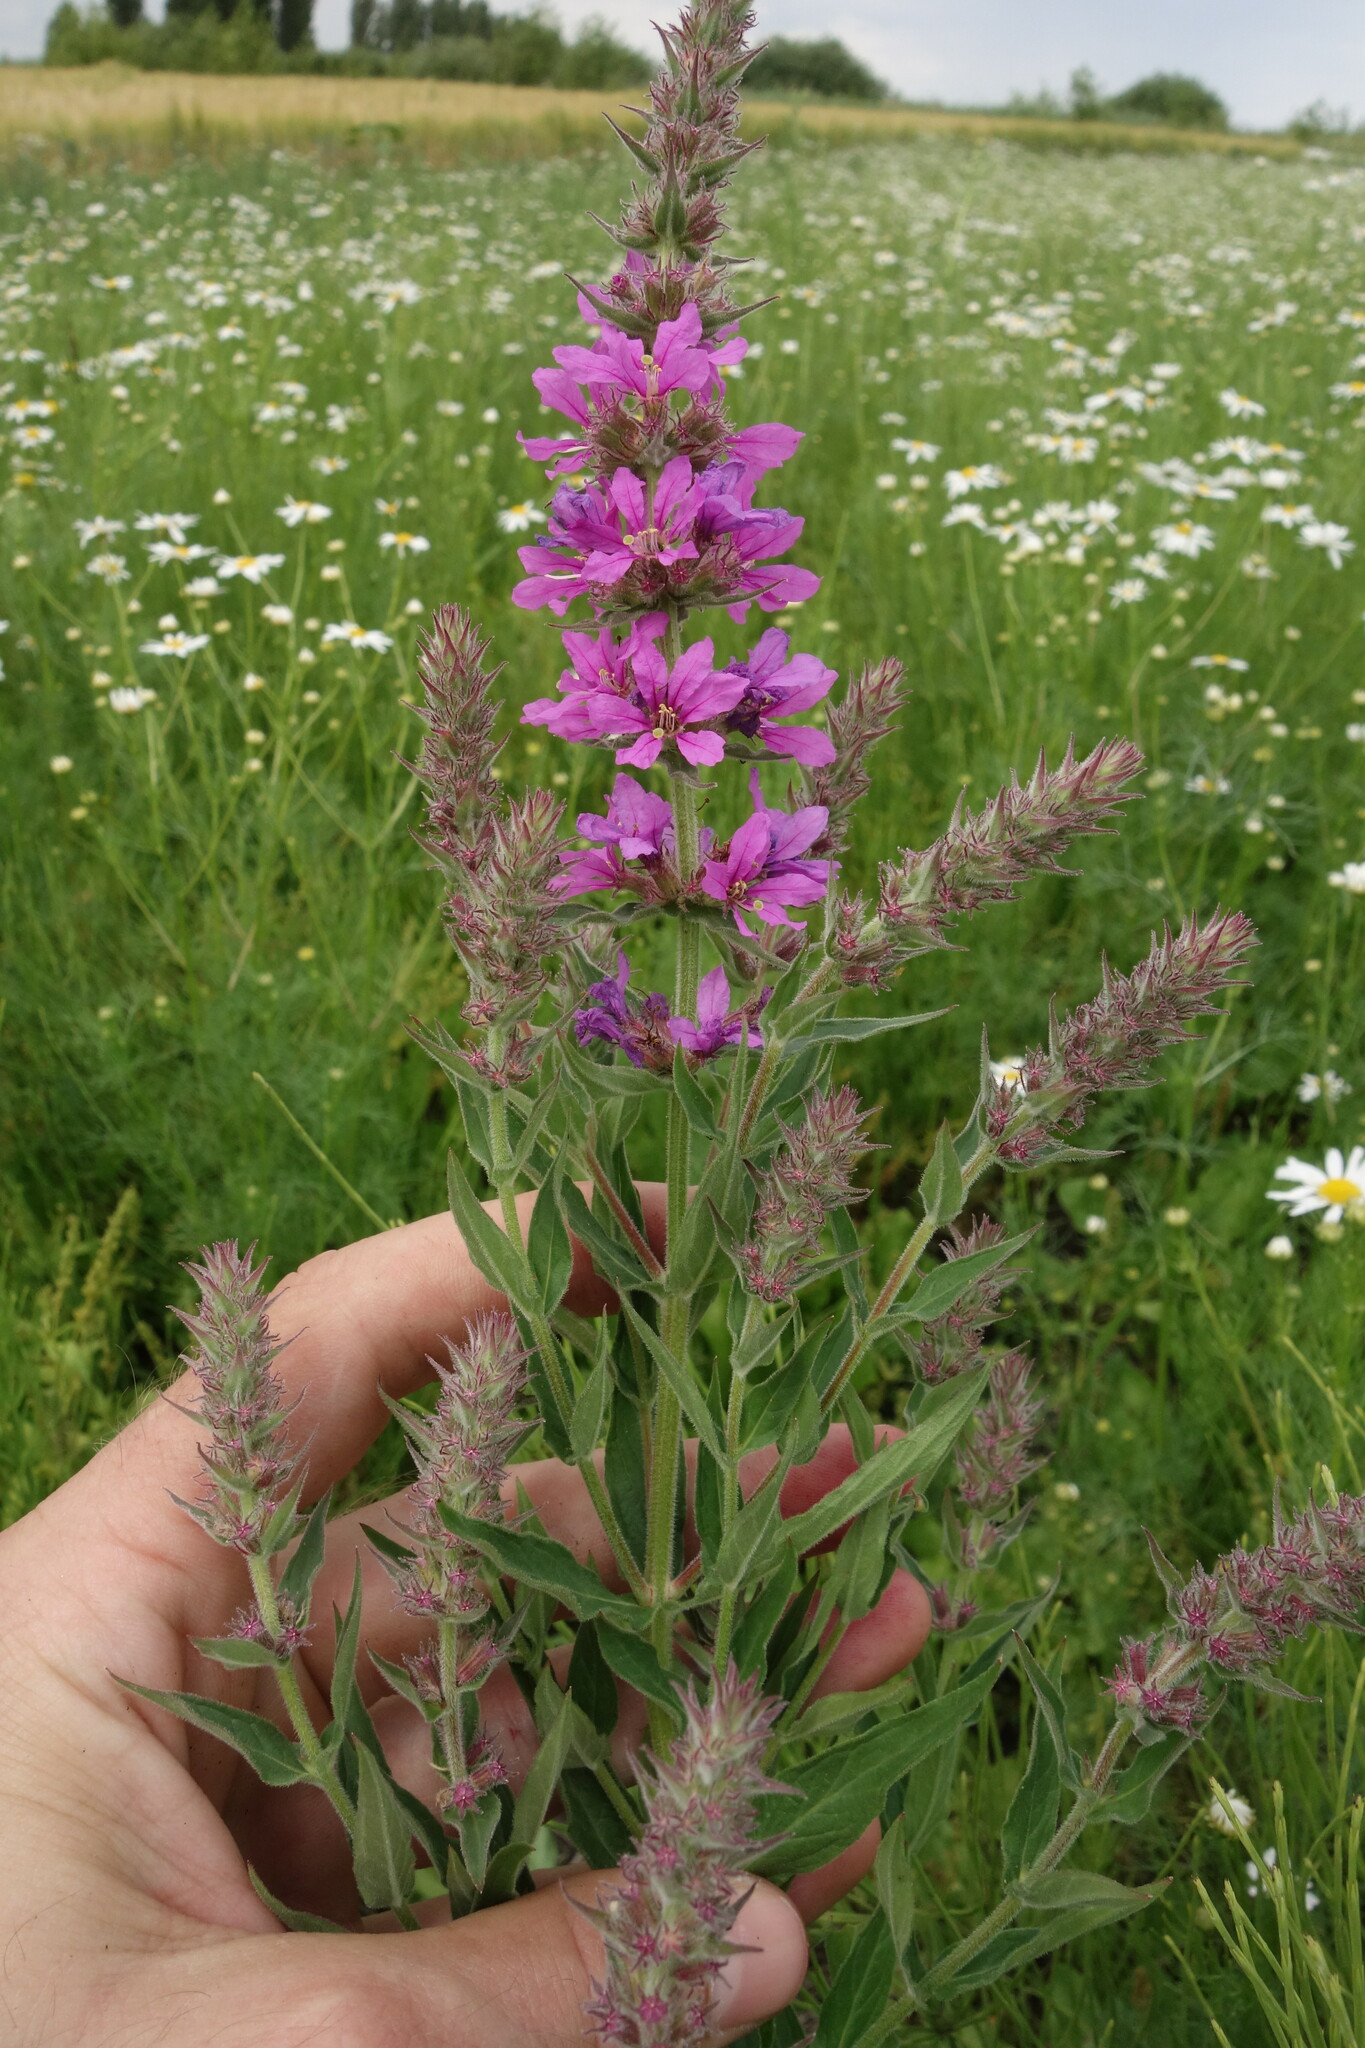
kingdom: Plantae
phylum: Tracheophyta
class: Magnoliopsida
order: Myrtales
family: Lythraceae
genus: Lythrum
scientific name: Lythrum salicaria
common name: Purple loosestrife
